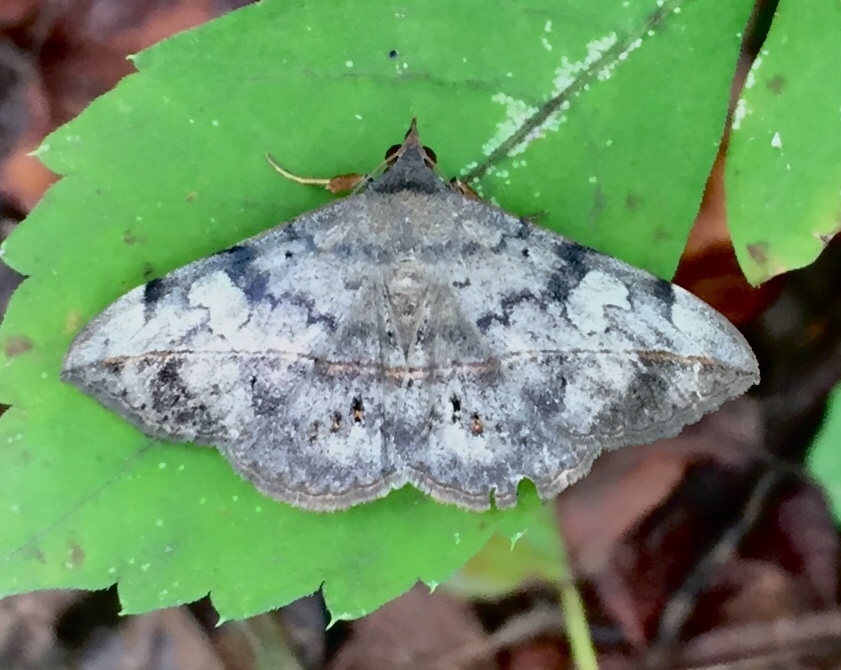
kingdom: Animalia
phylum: Arthropoda
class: Insecta
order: Lepidoptera
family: Erebidae
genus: Anticarsia
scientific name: Anticarsia gemmatalis
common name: Cutworm moth
